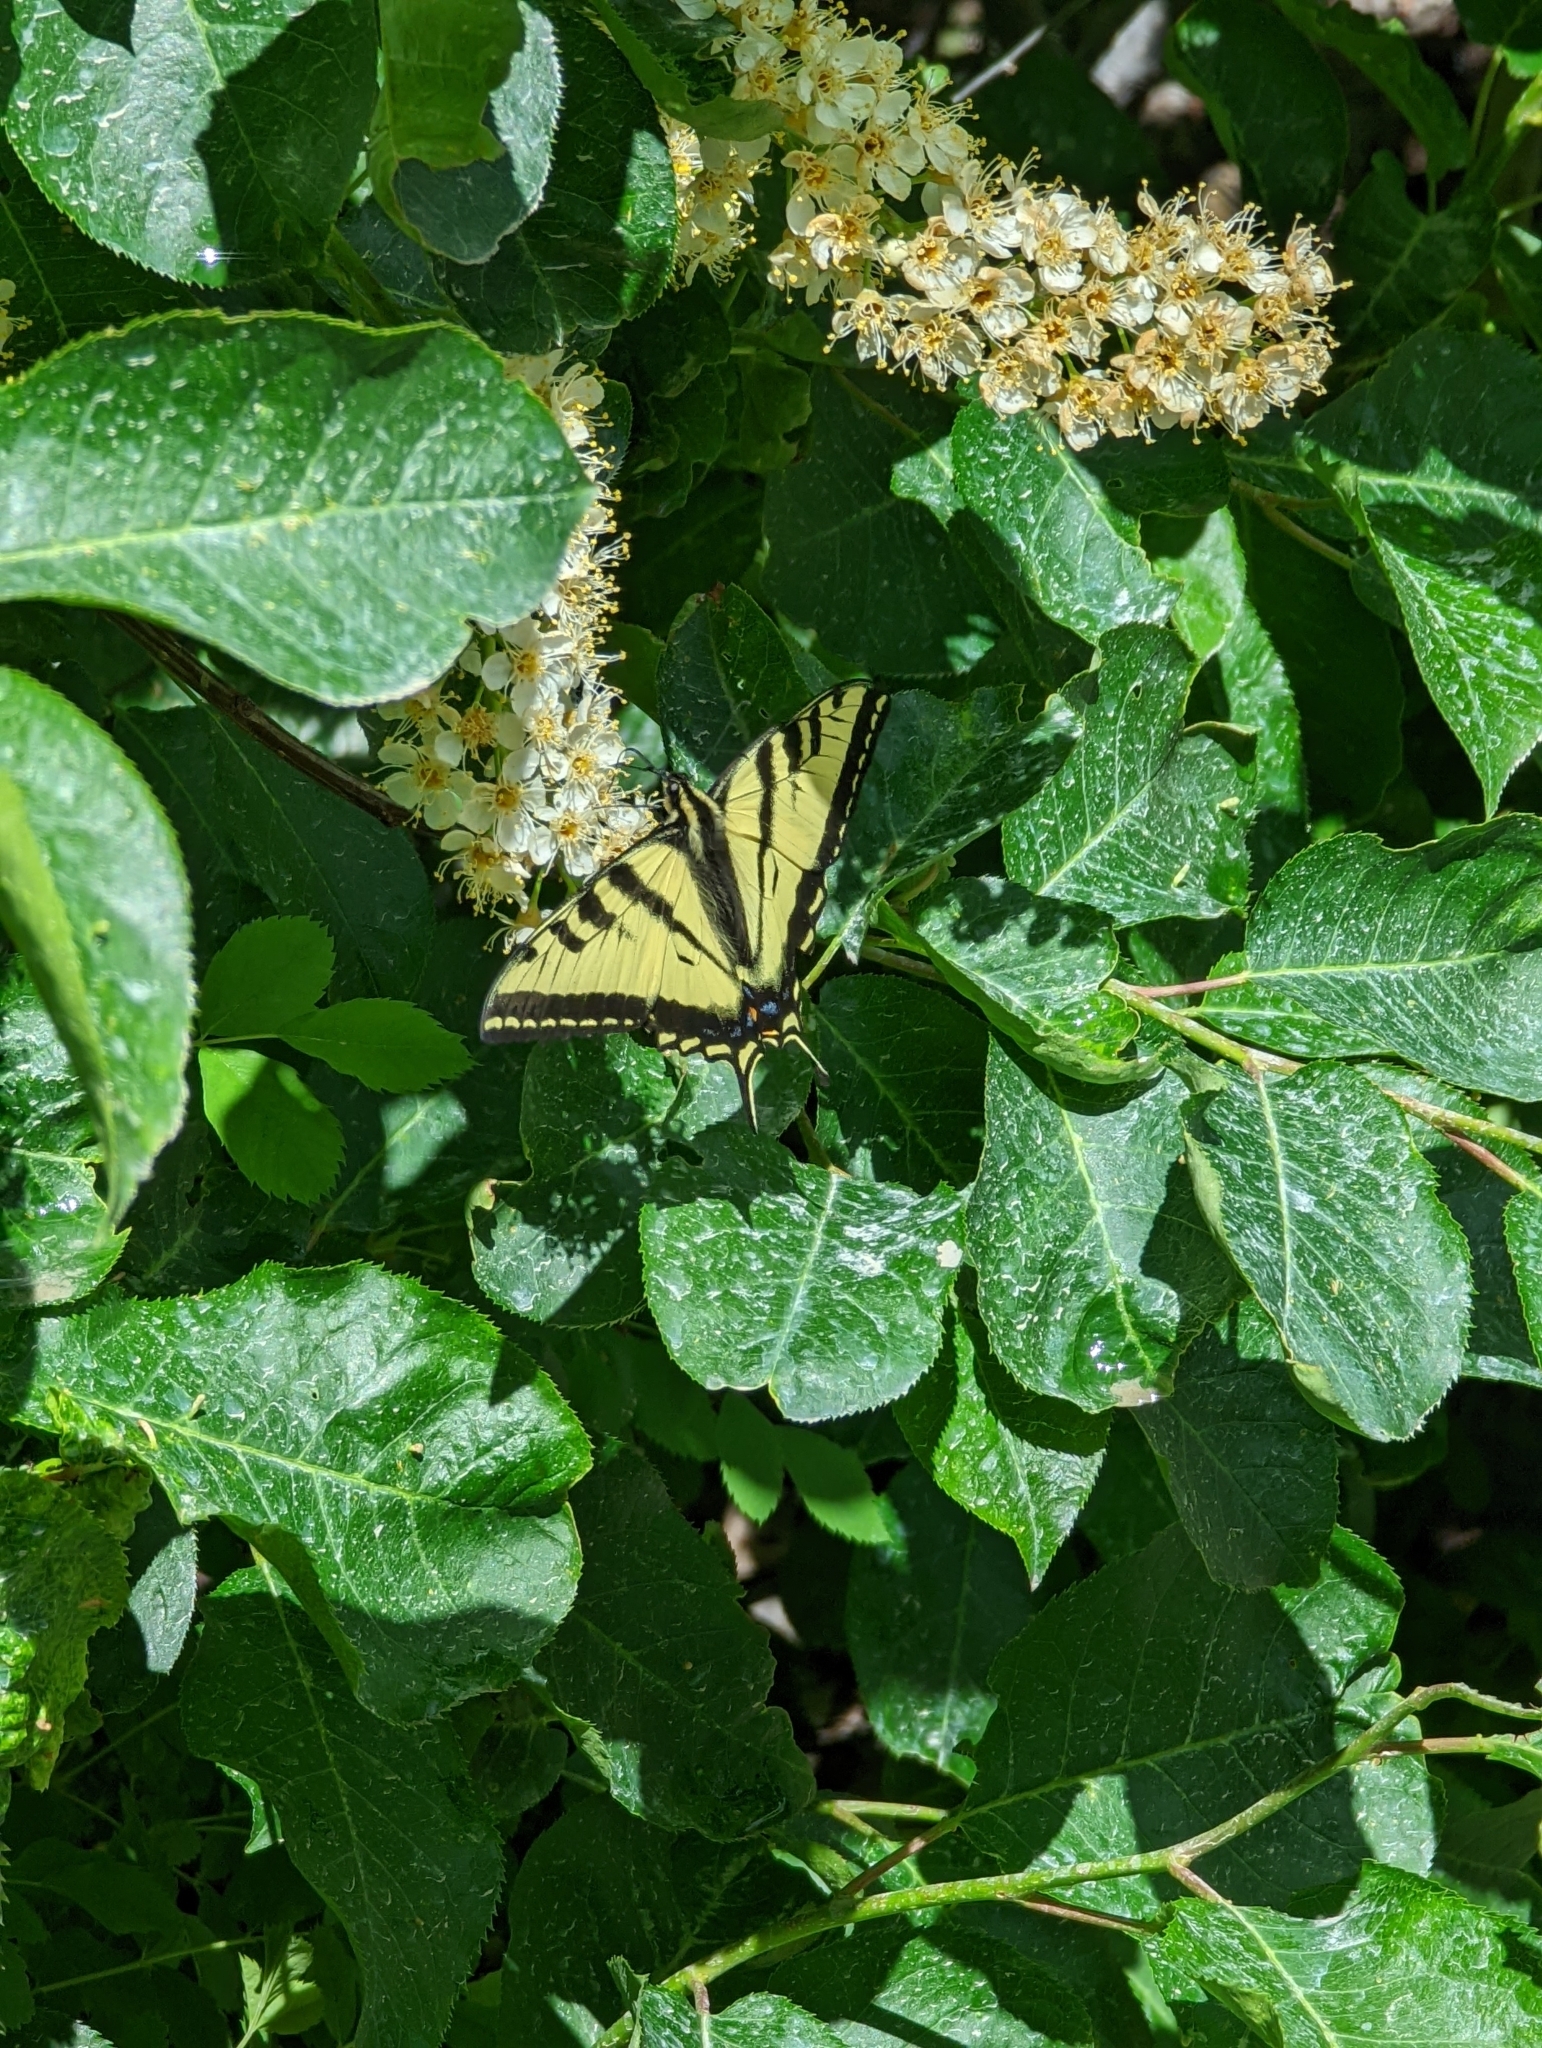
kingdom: Animalia
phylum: Arthropoda
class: Insecta
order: Lepidoptera
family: Papilionidae
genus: Papilio
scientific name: Papilio rutulus
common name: Western tiger swallowtail
